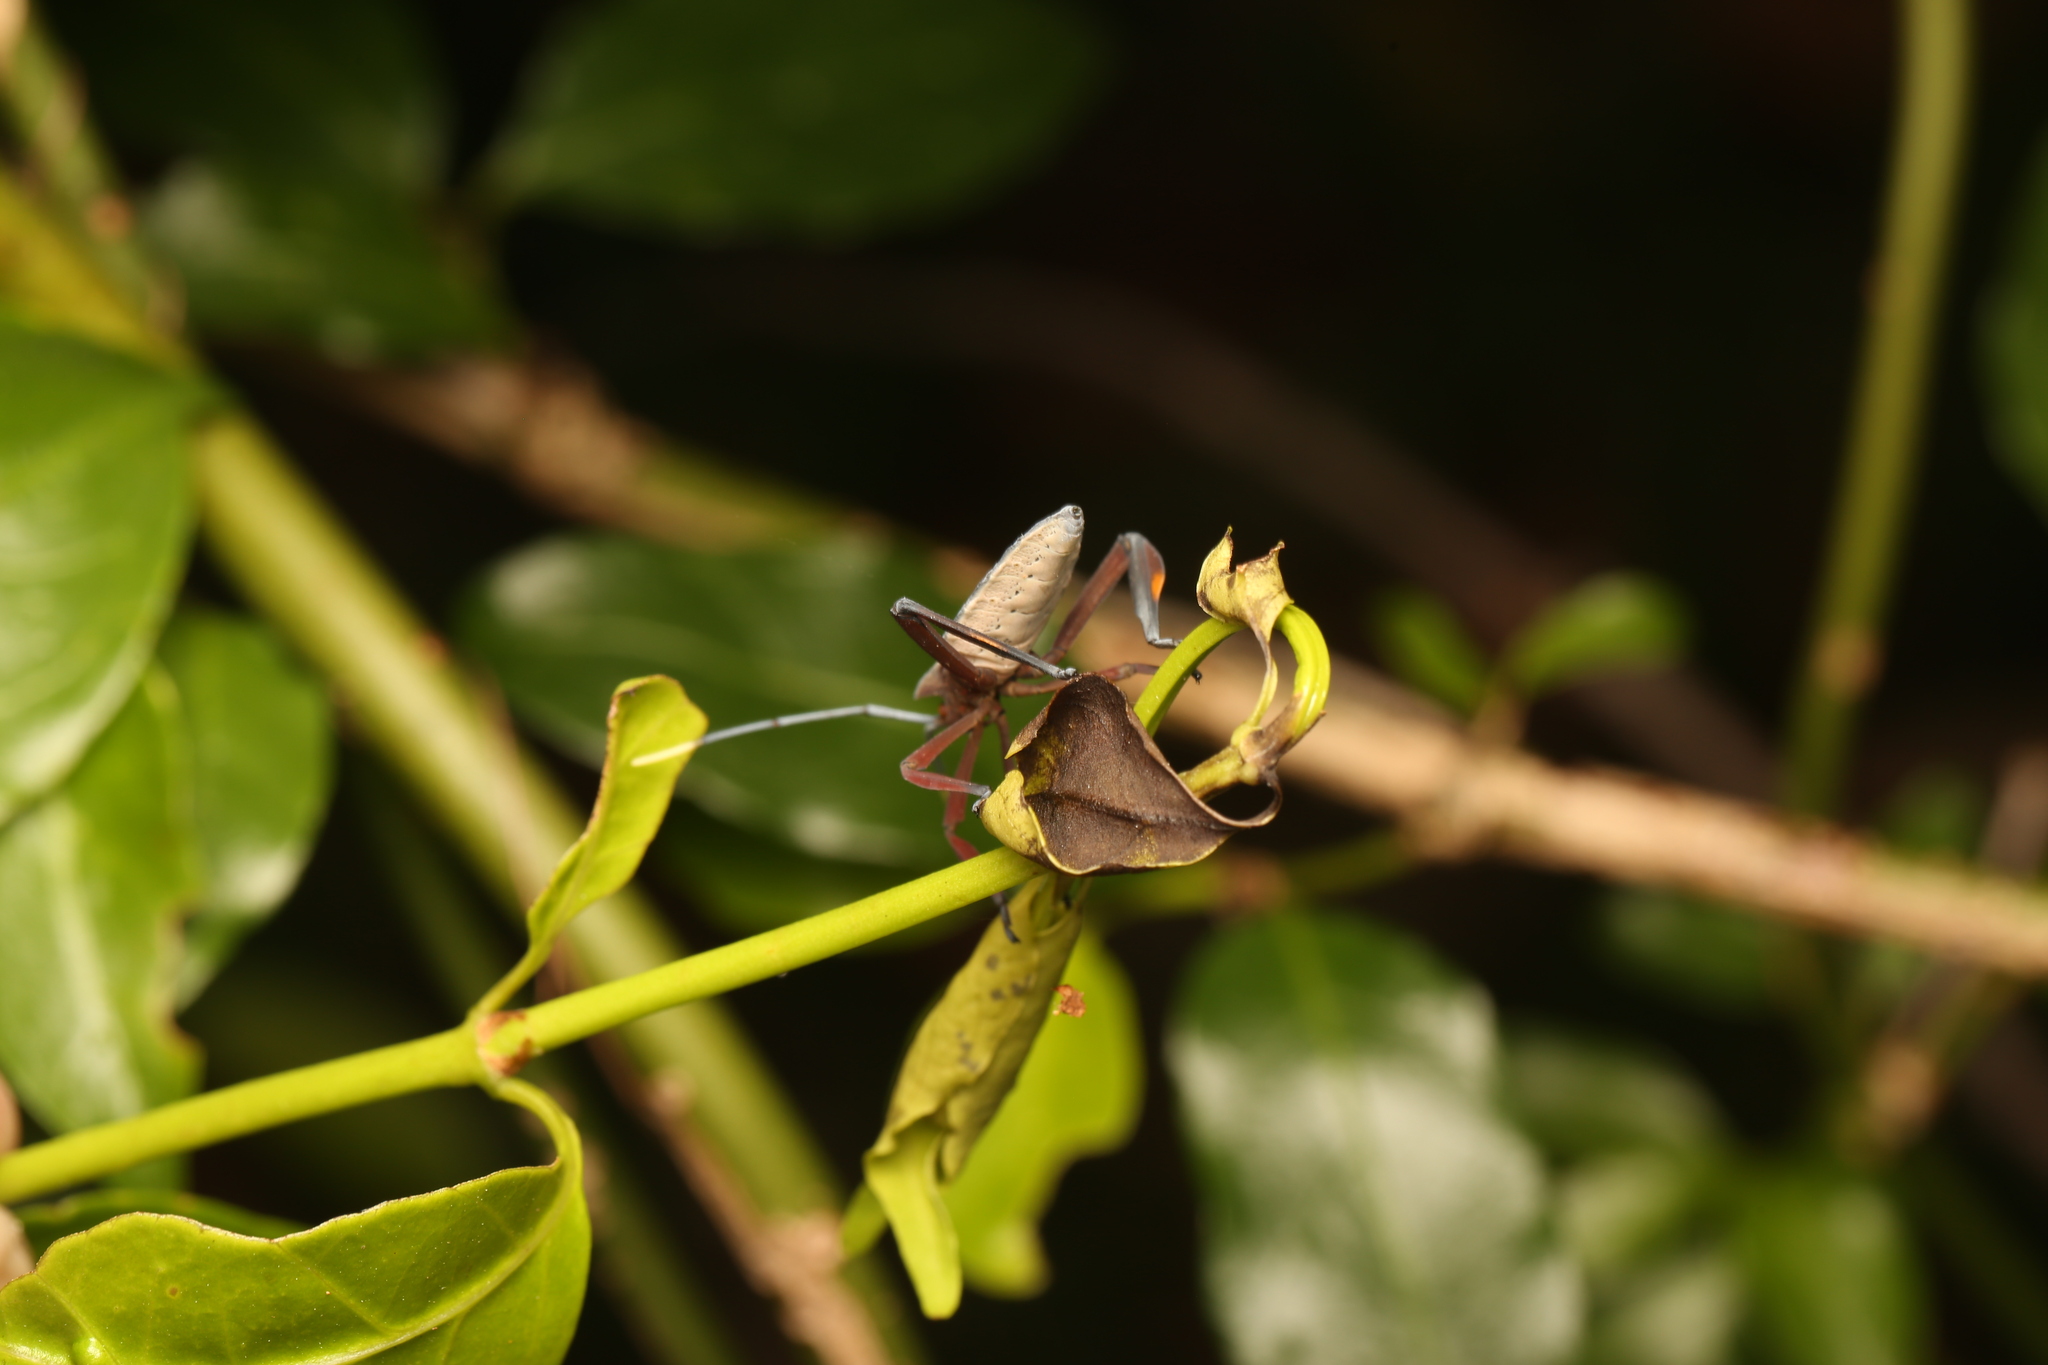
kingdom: Animalia
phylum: Arthropoda
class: Insecta
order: Hemiptera
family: Coreidae
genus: Canungrantmictis
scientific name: Canungrantmictis morindana
